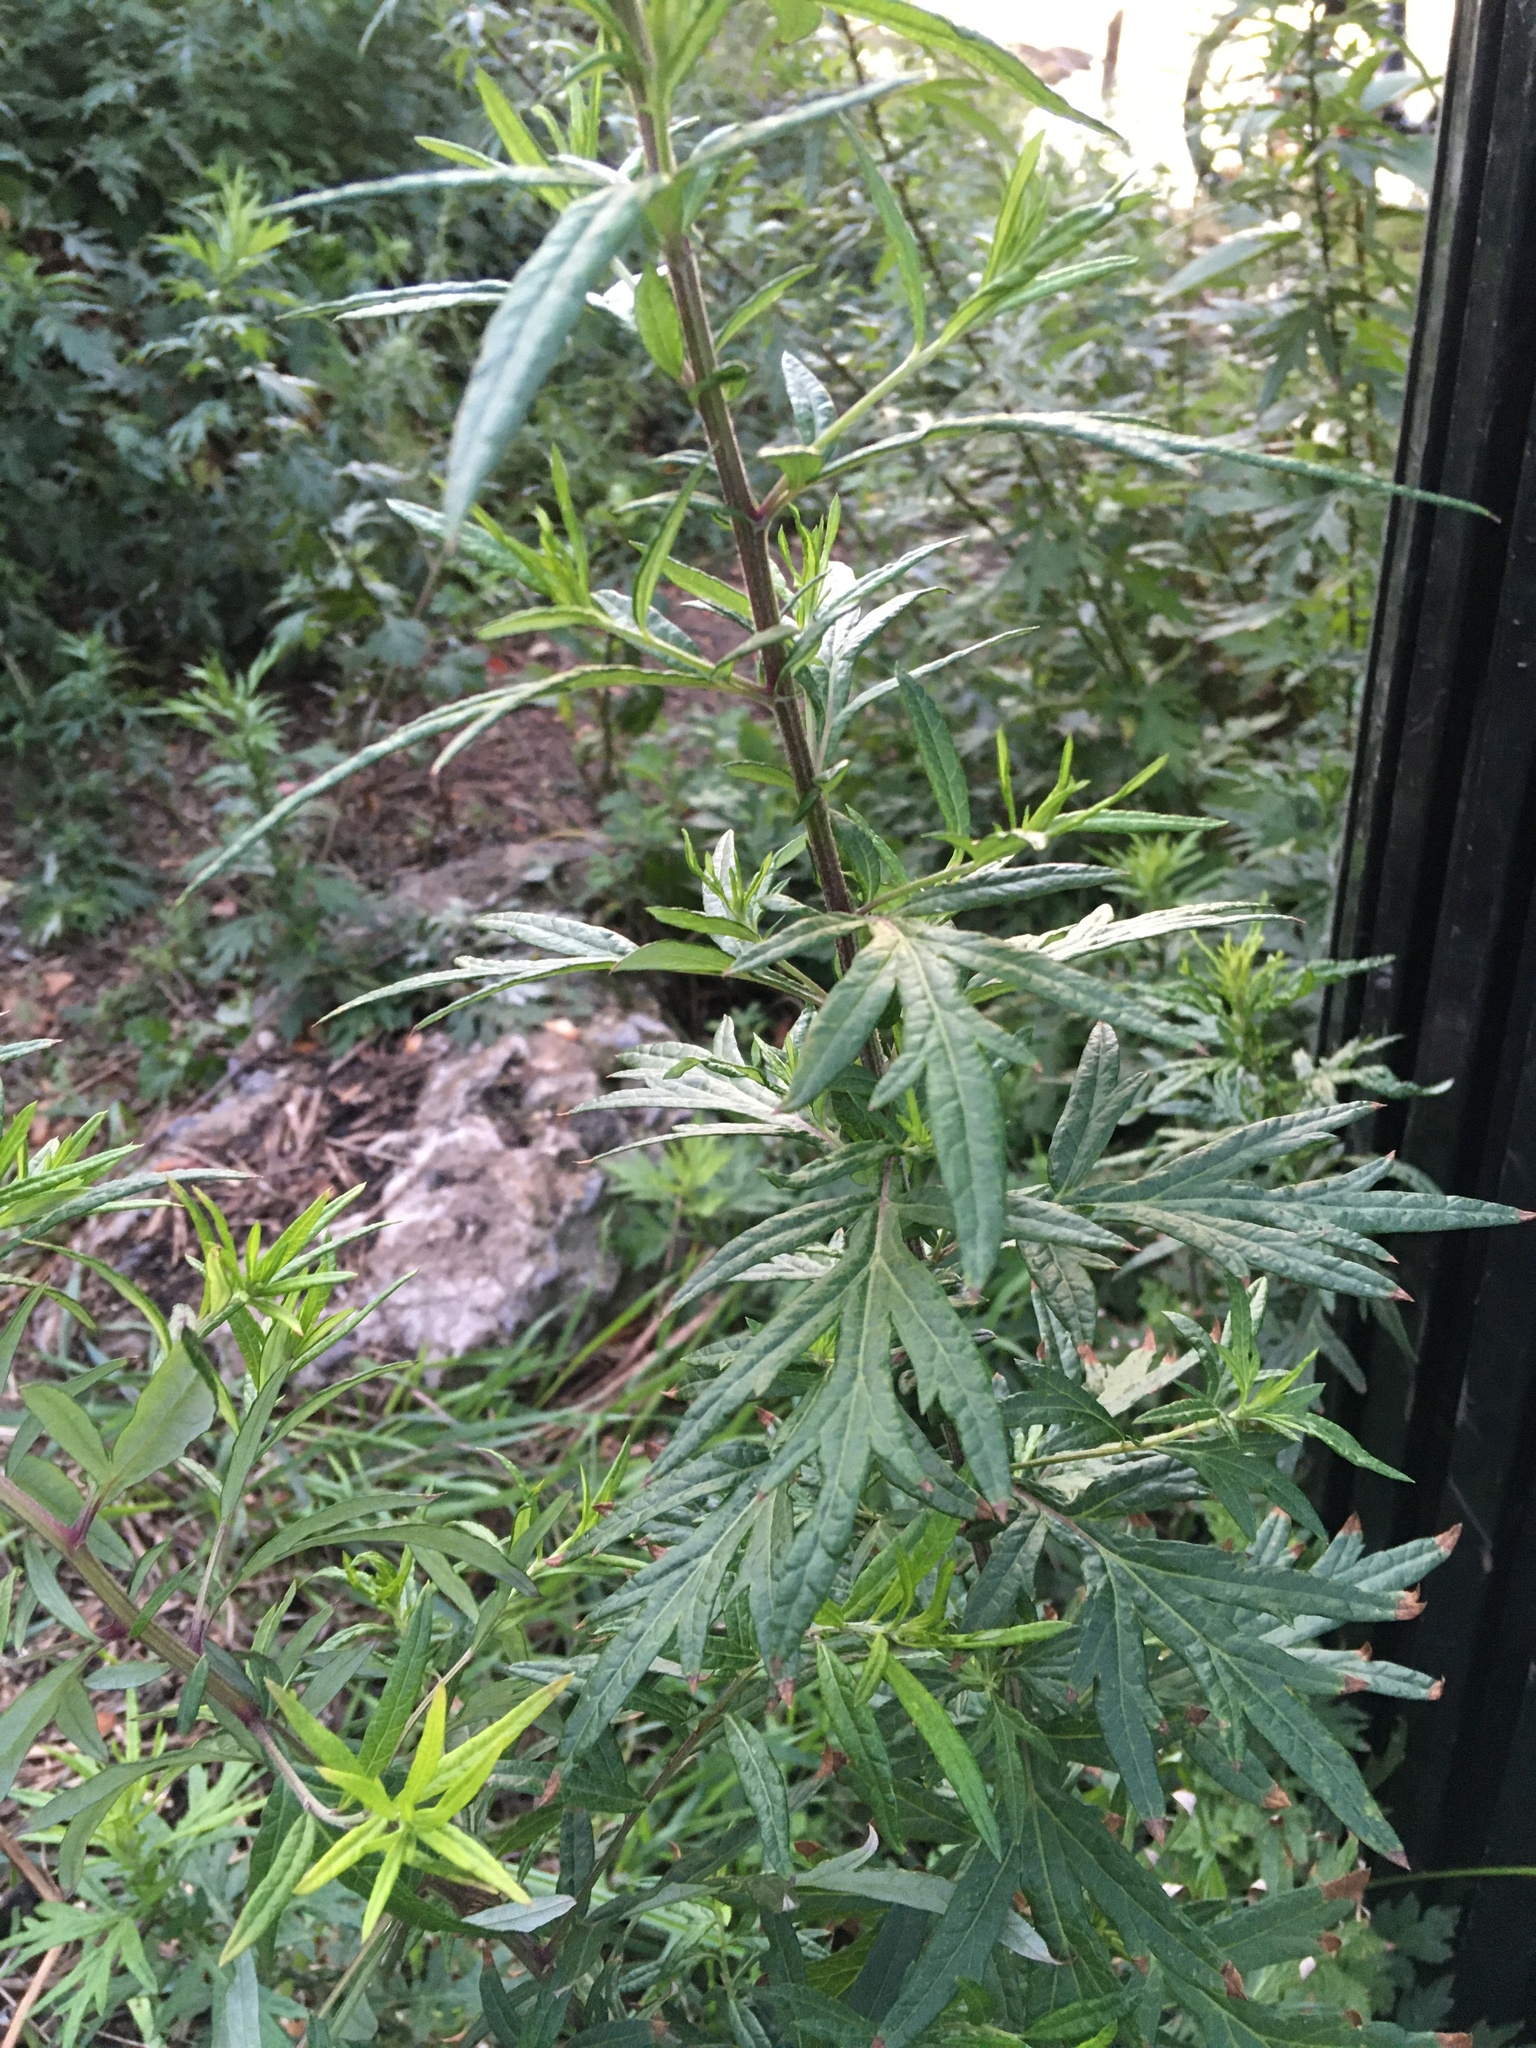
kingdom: Plantae
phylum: Tracheophyta
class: Magnoliopsida
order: Asterales
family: Asteraceae
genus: Artemisia
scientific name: Artemisia vulgaris
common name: Mugwort
